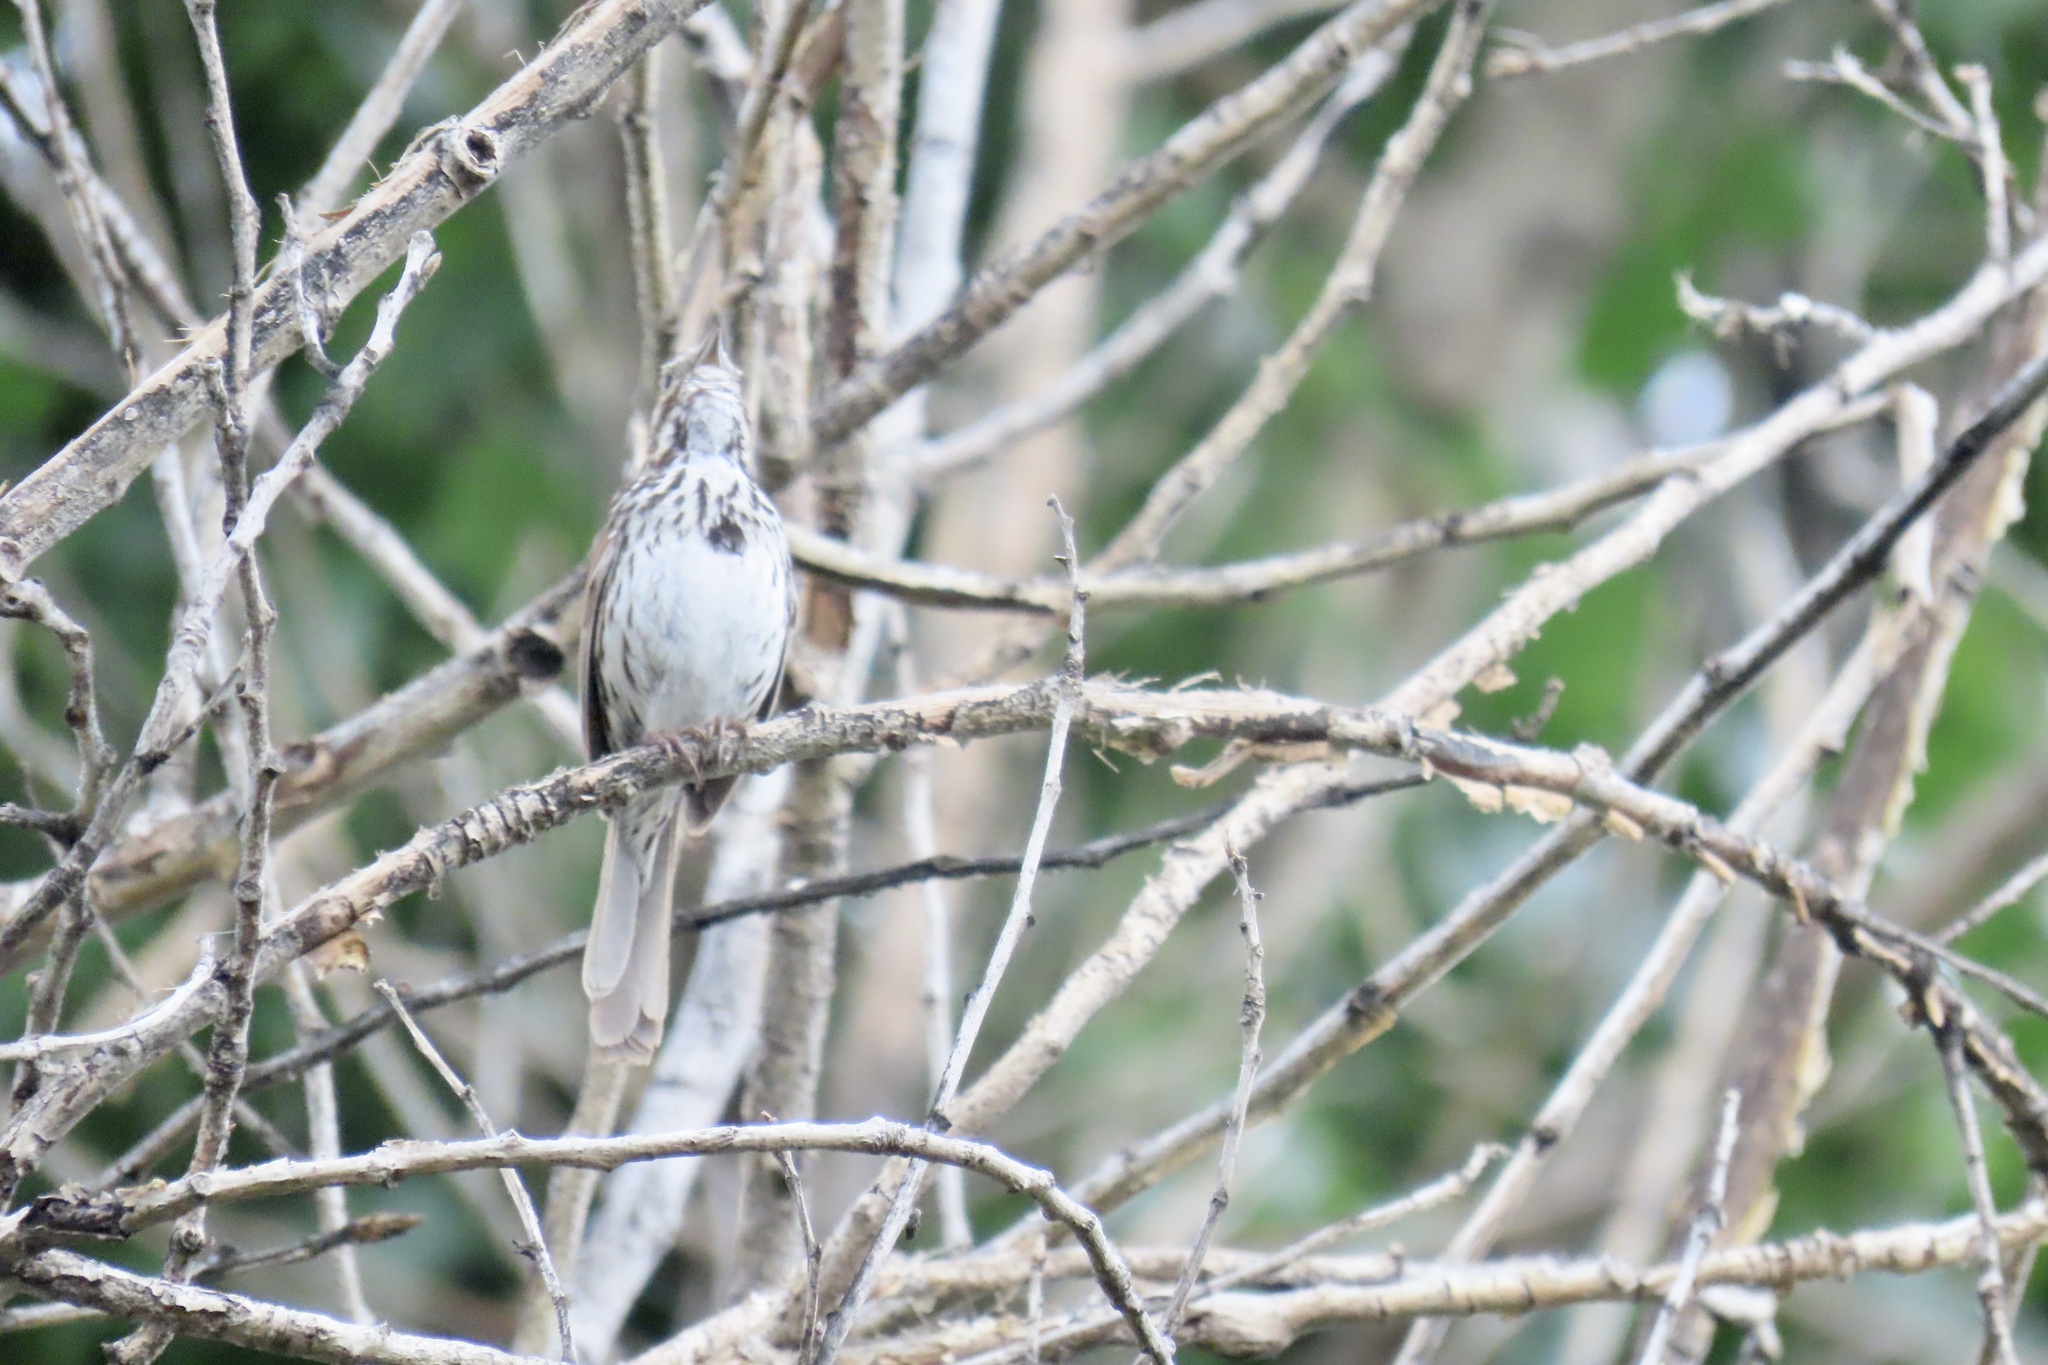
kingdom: Animalia
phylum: Chordata
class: Aves
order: Passeriformes
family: Passerellidae
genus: Melospiza
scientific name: Melospiza melodia
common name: Song sparrow
